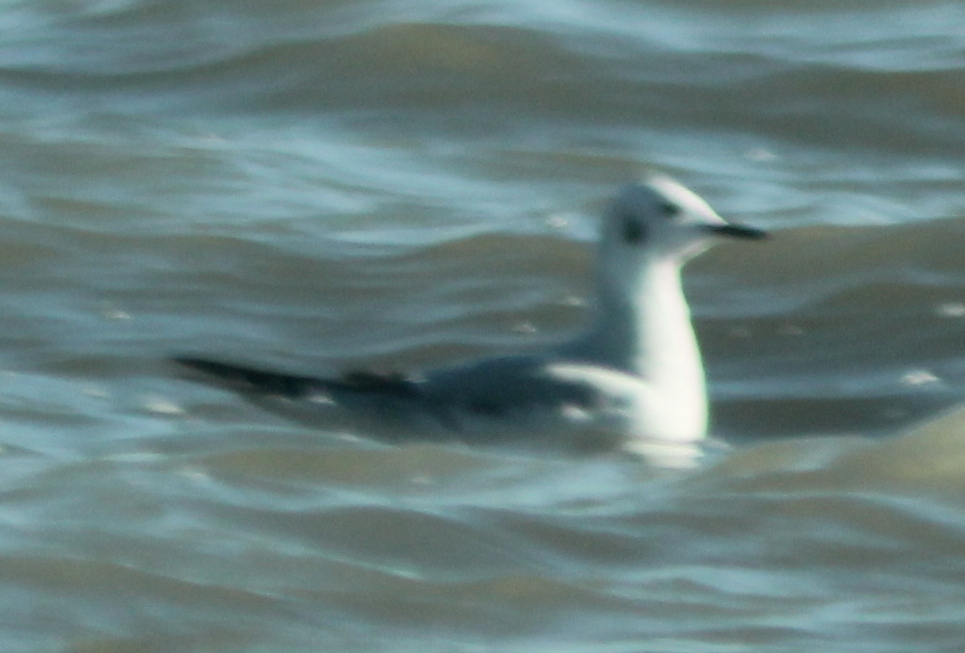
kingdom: Animalia
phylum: Chordata
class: Aves
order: Charadriiformes
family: Laridae
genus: Chroicocephalus
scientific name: Chroicocephalus philadelphia
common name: Bonaparte's gull
